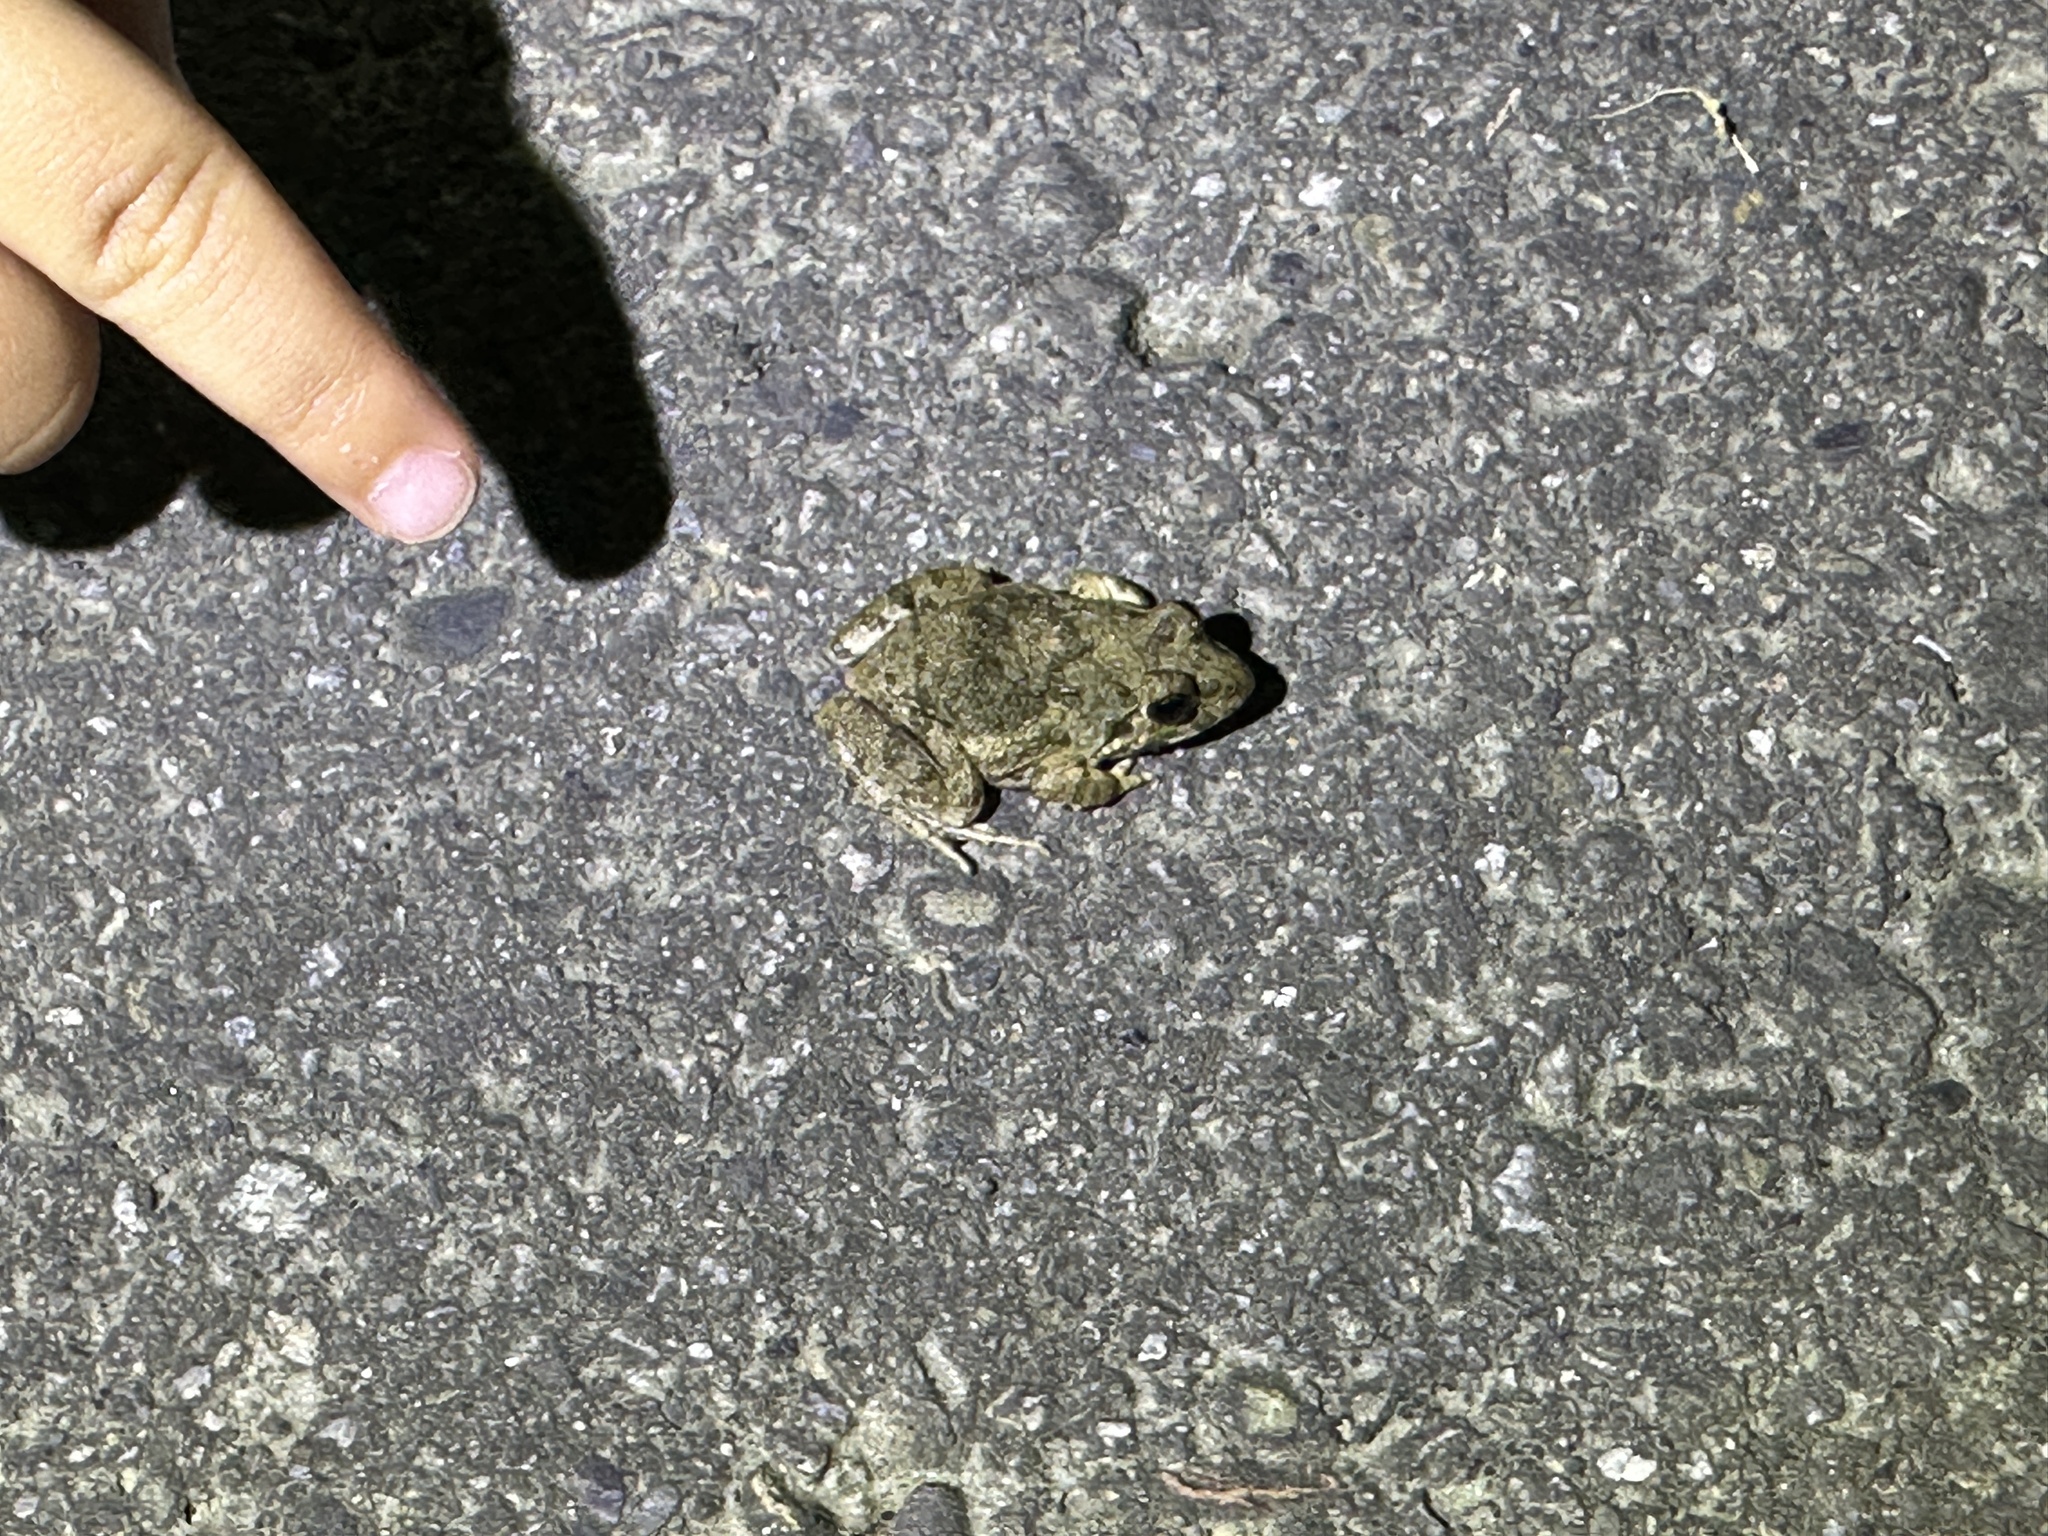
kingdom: Animalia
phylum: Chordata
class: Amphibia
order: Anura
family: Dicroglossidae
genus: Fejervarya
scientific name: Fejervarya limnocharis
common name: Asian grass frog/common pond frog/field frog/grass frog/indian rice frog
